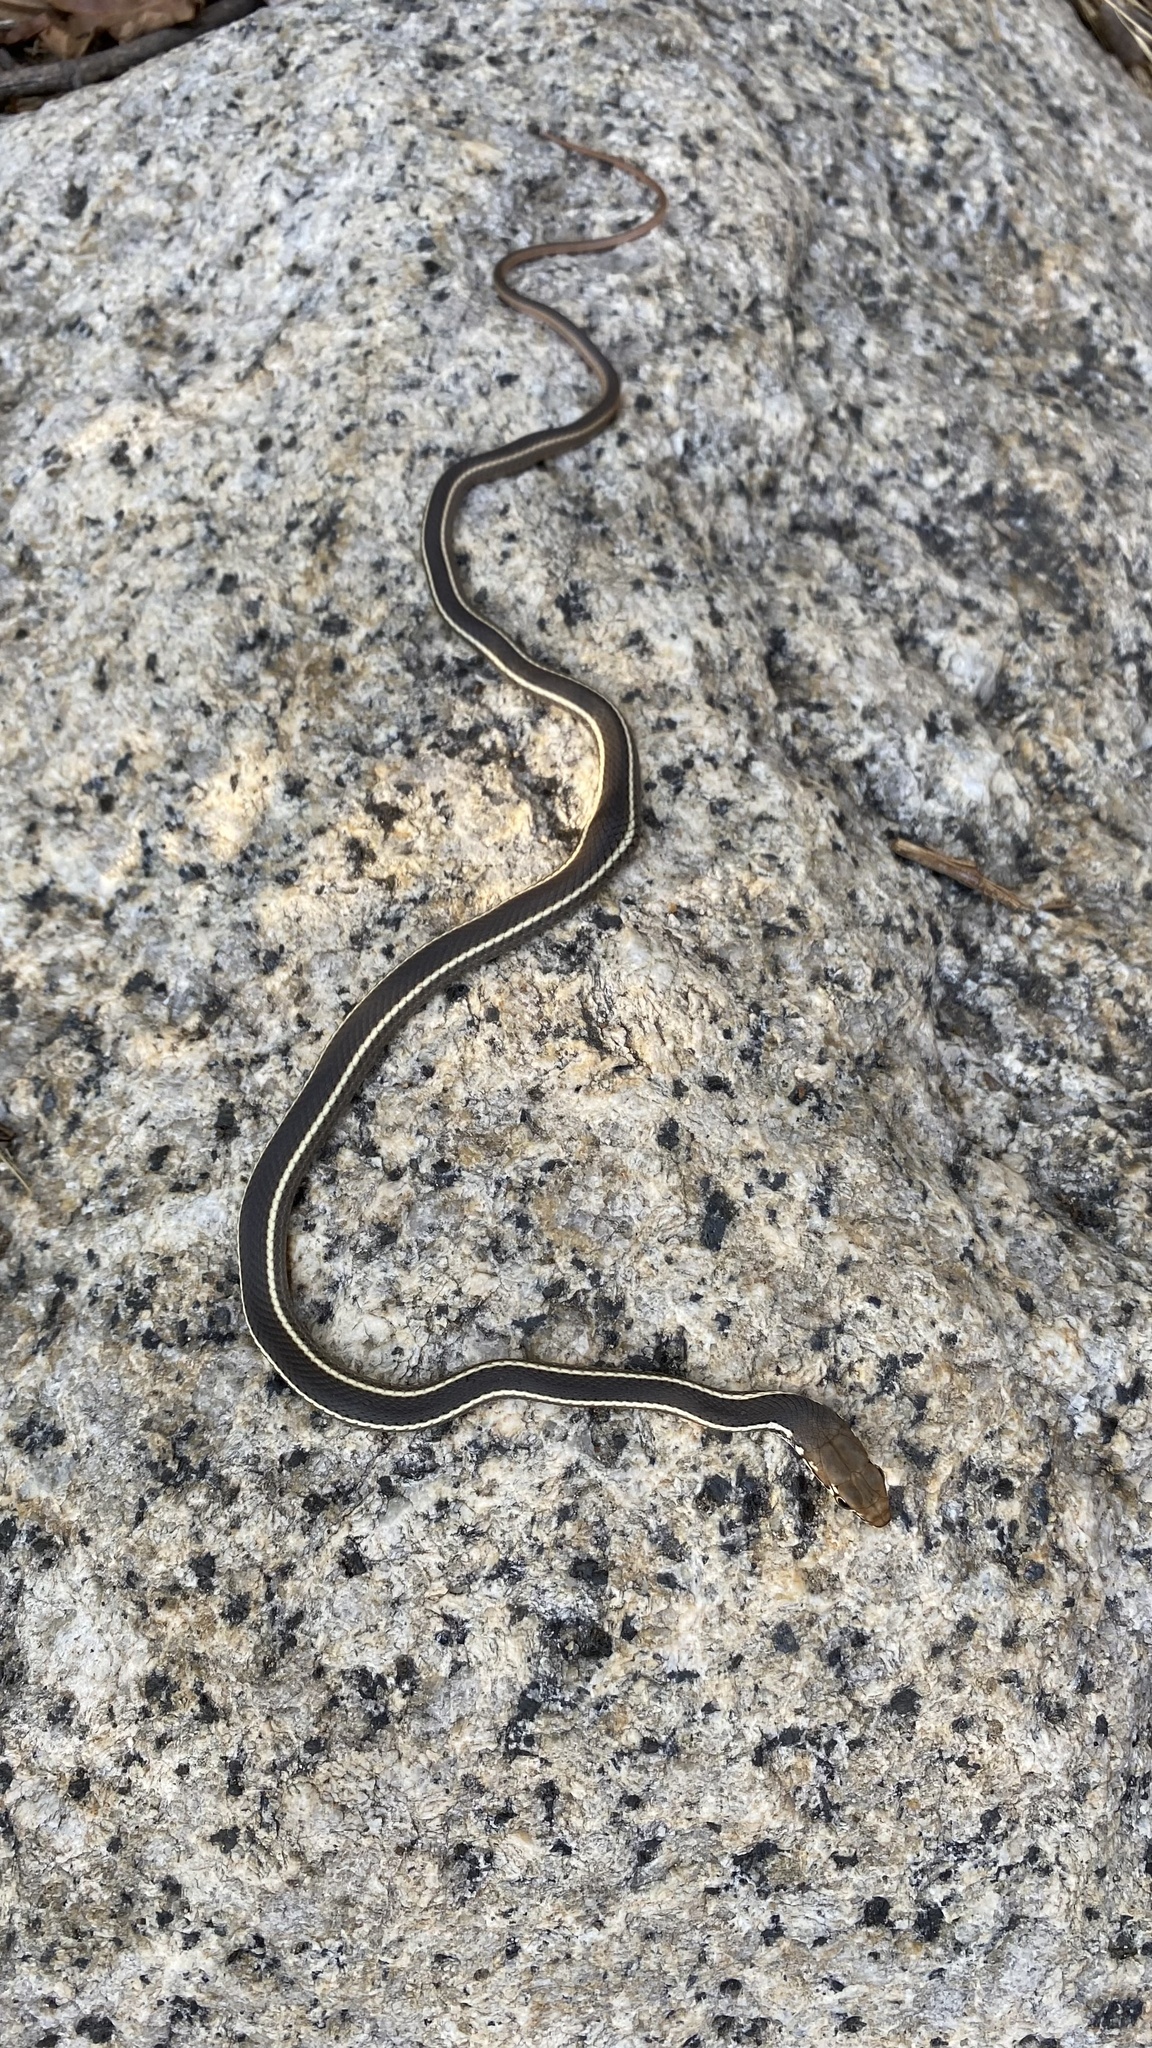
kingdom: Animalia
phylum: Chordata
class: Squamata
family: Colubridae
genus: Masticophis
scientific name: Masticophis lateralis
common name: Striped racer
